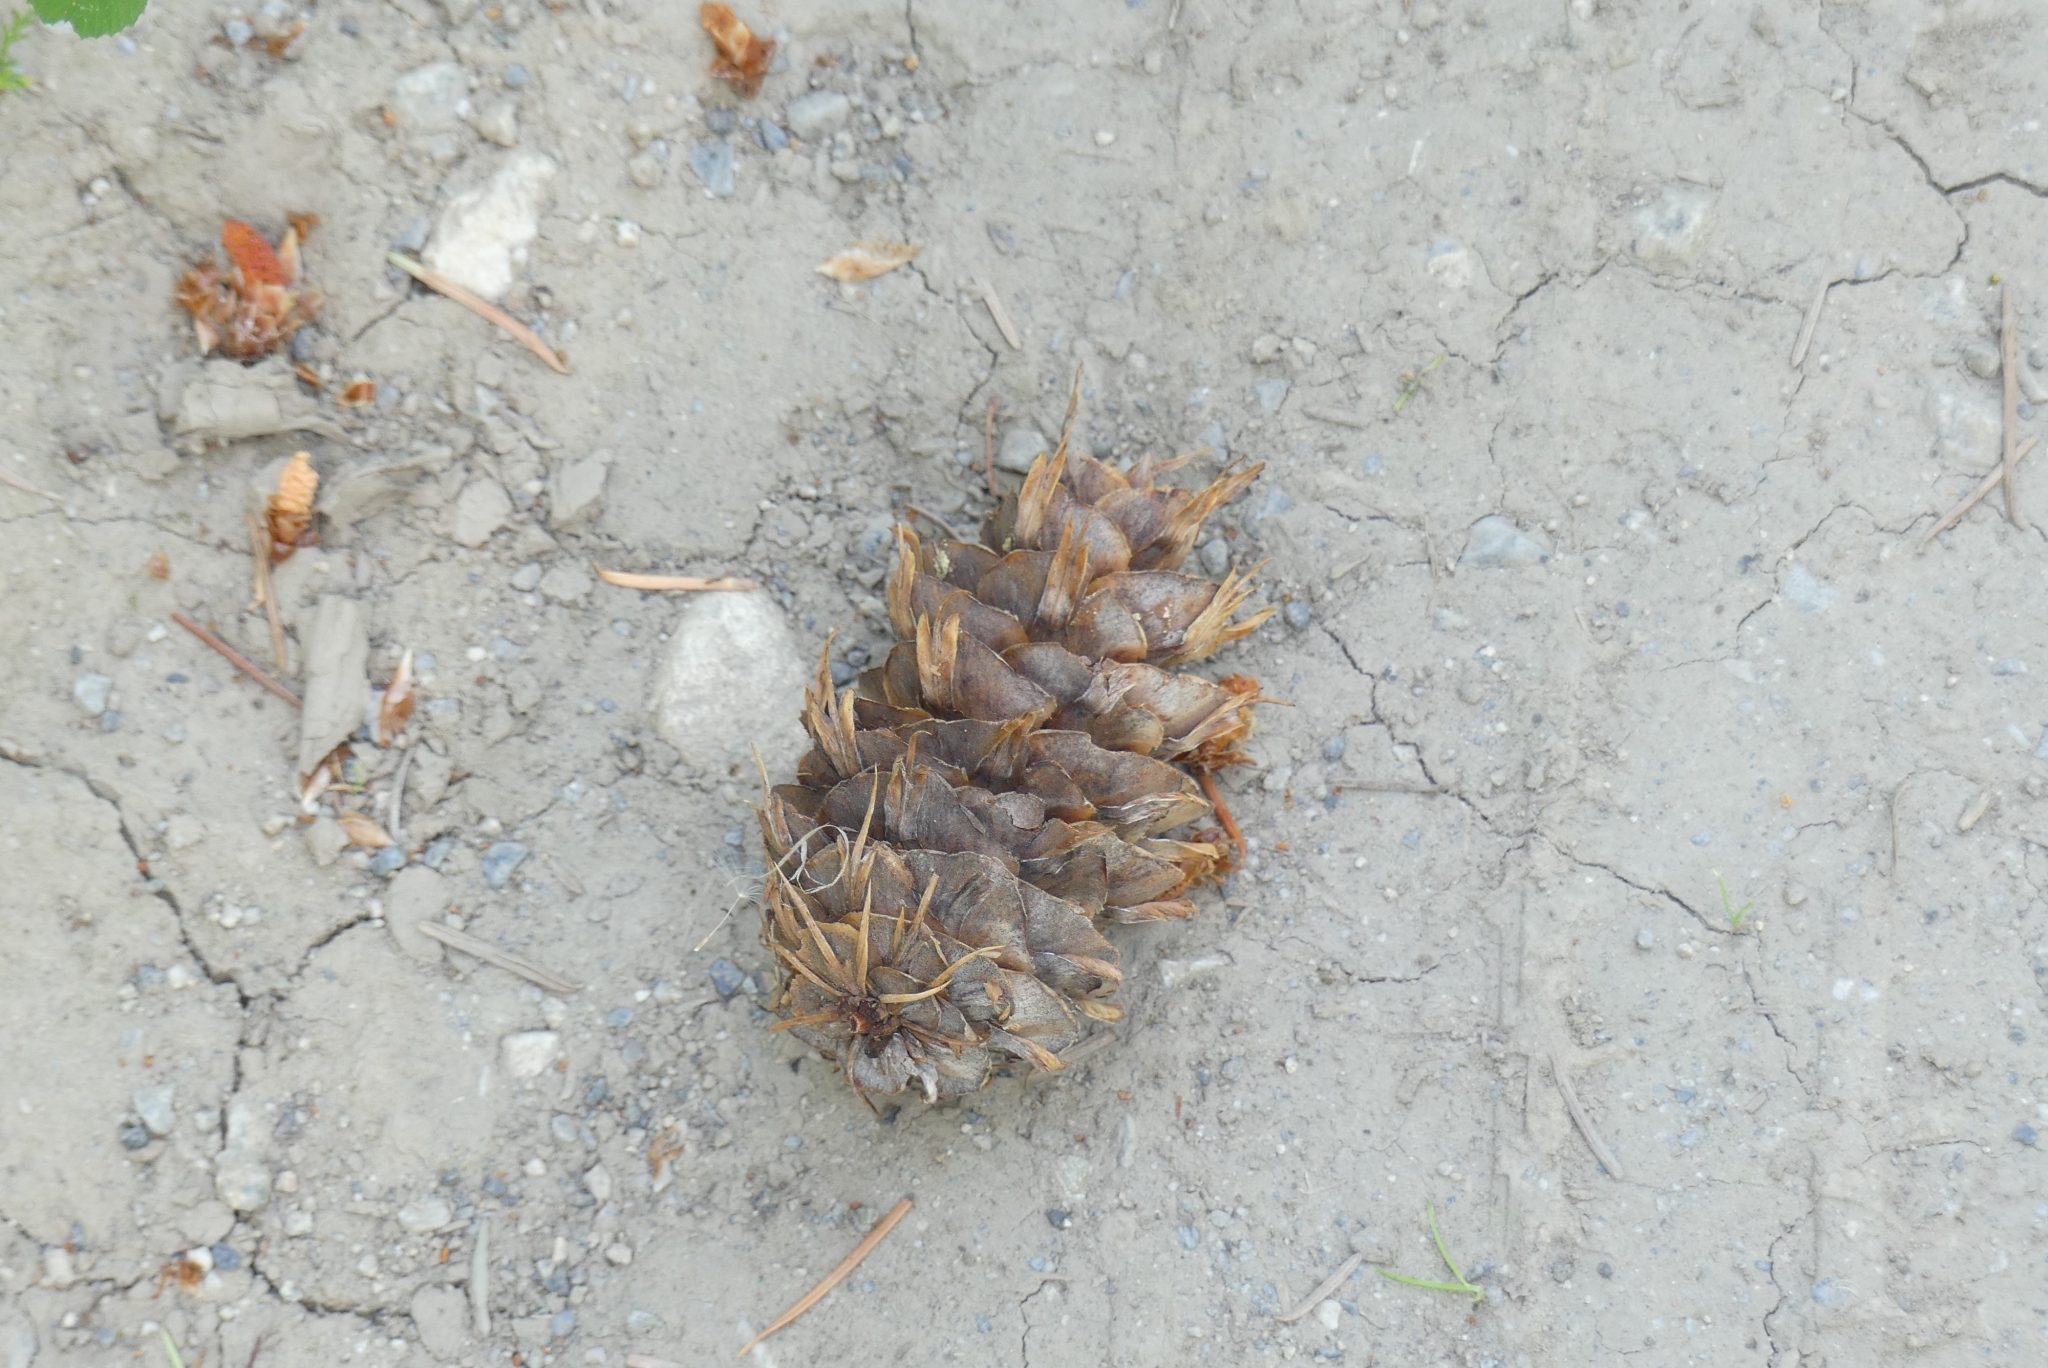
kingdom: Plantae
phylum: Tracheophyta
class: Pinopsida
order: Pinales
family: Pinaceae
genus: Pseudotsuga
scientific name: Pseudotsuga menziesii
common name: Douglas fir
